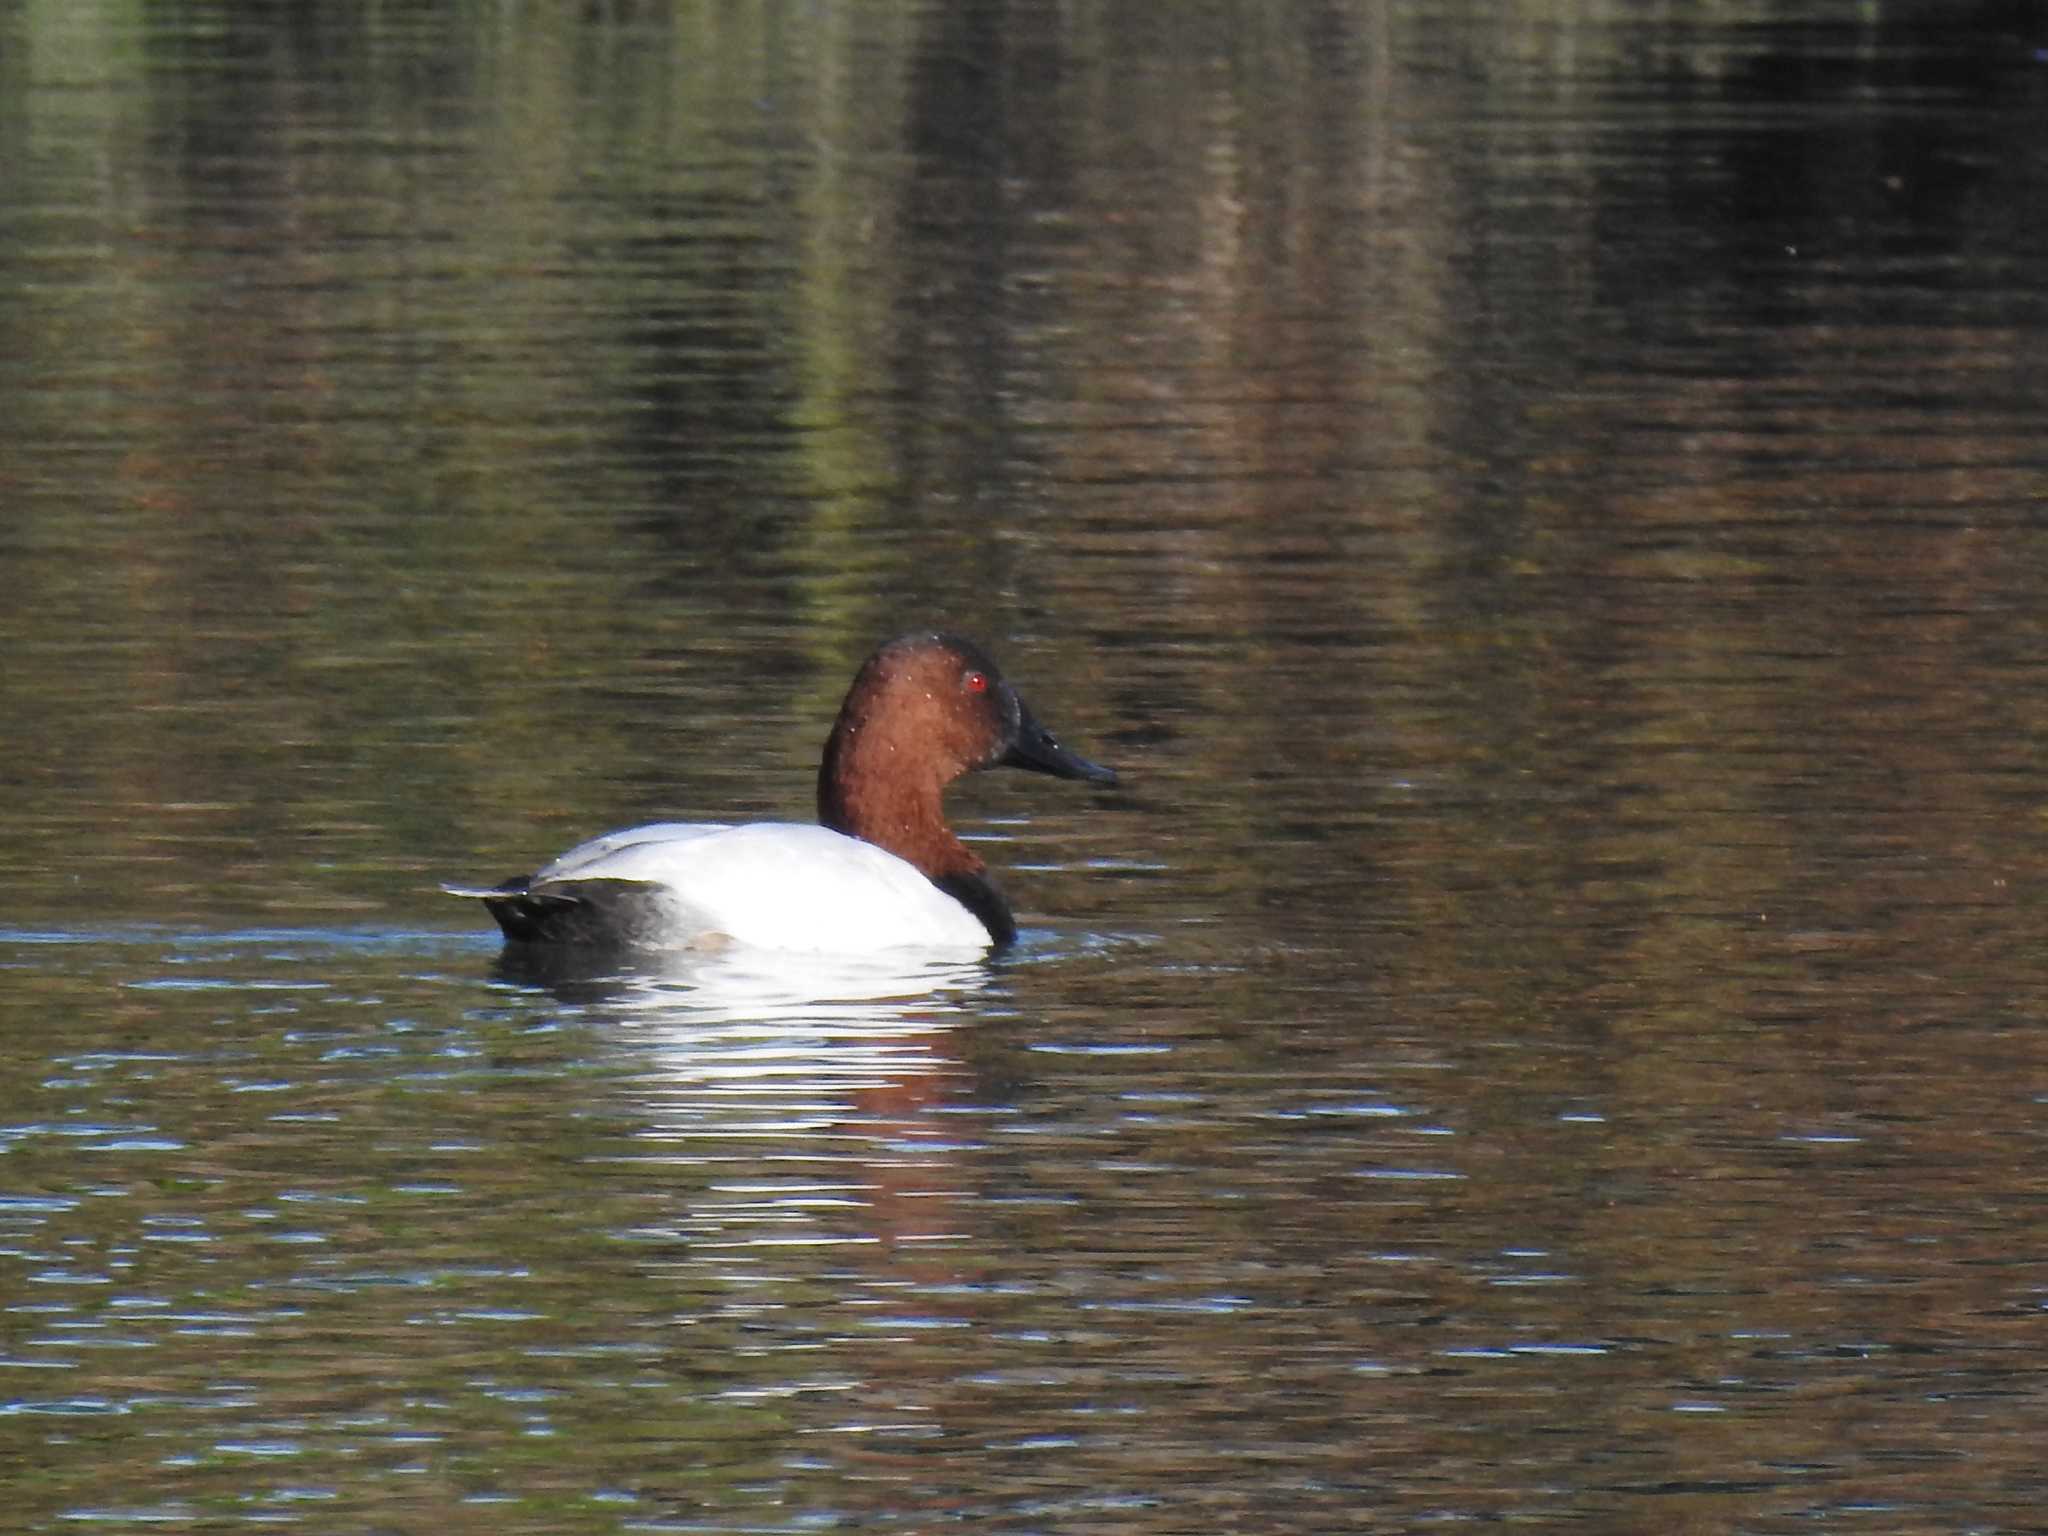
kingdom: Animalia
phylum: Chordata
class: Aves
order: Anseriformes
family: Anatidae
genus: Aythya
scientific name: Aythya valisineria
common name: Canvasback
